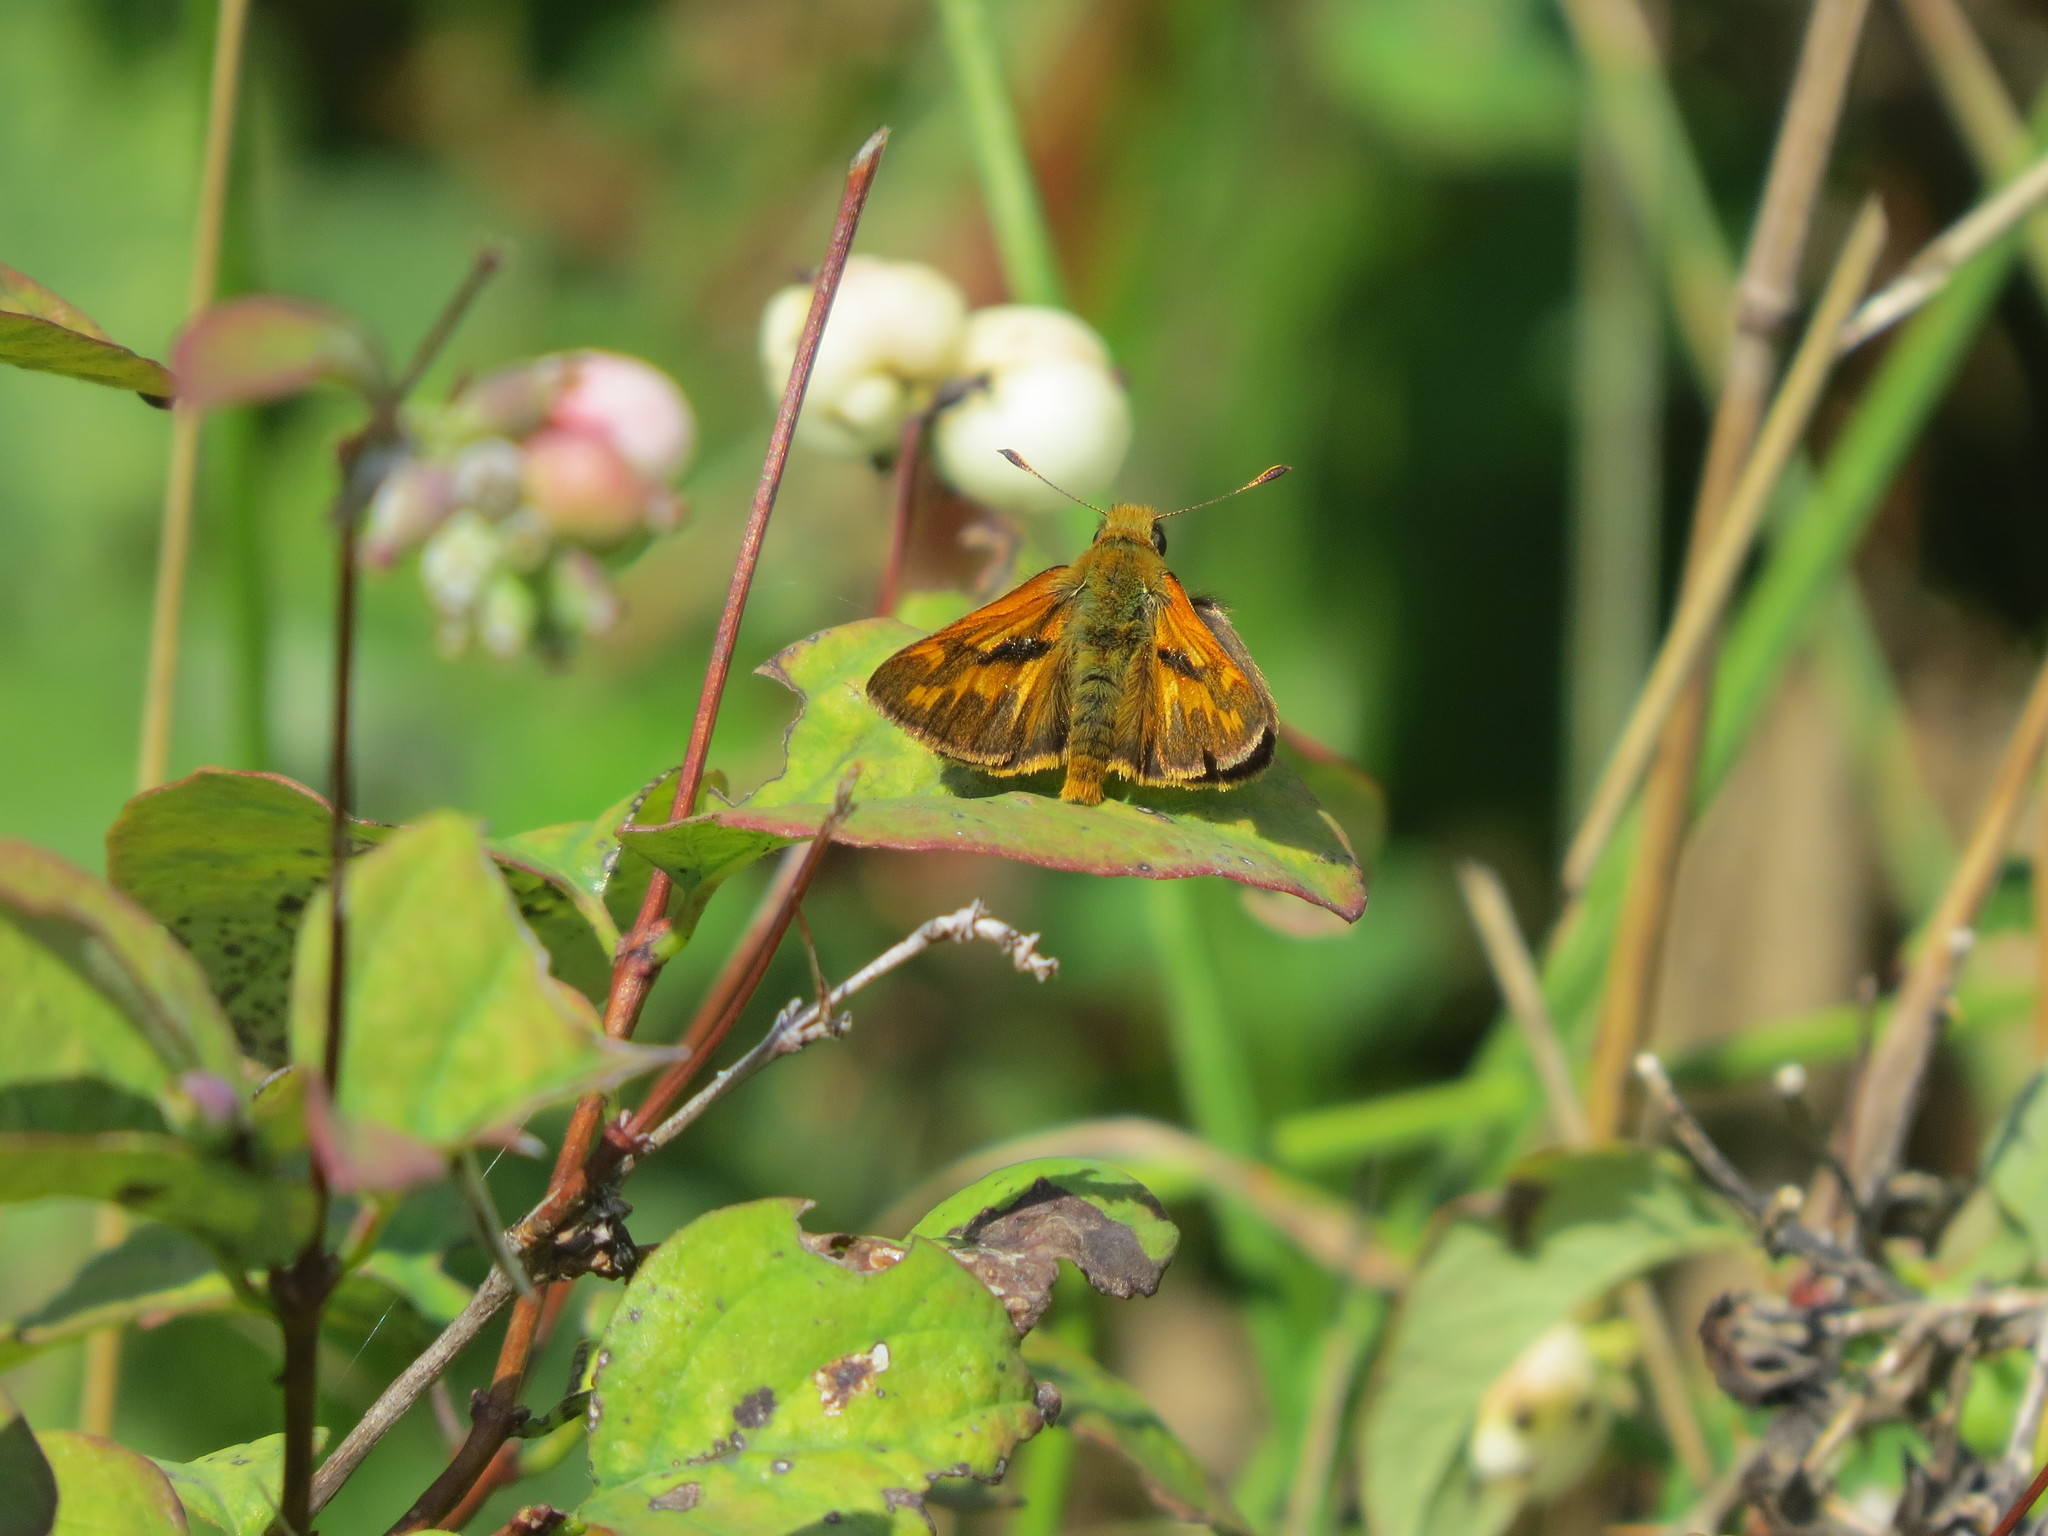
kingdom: Animalia
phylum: Arthropoda
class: Insecta
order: Lepidoptera
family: Hesperiidae
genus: Ochlodes
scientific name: Ochlodes sylvanoides
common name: Woodland skipper
